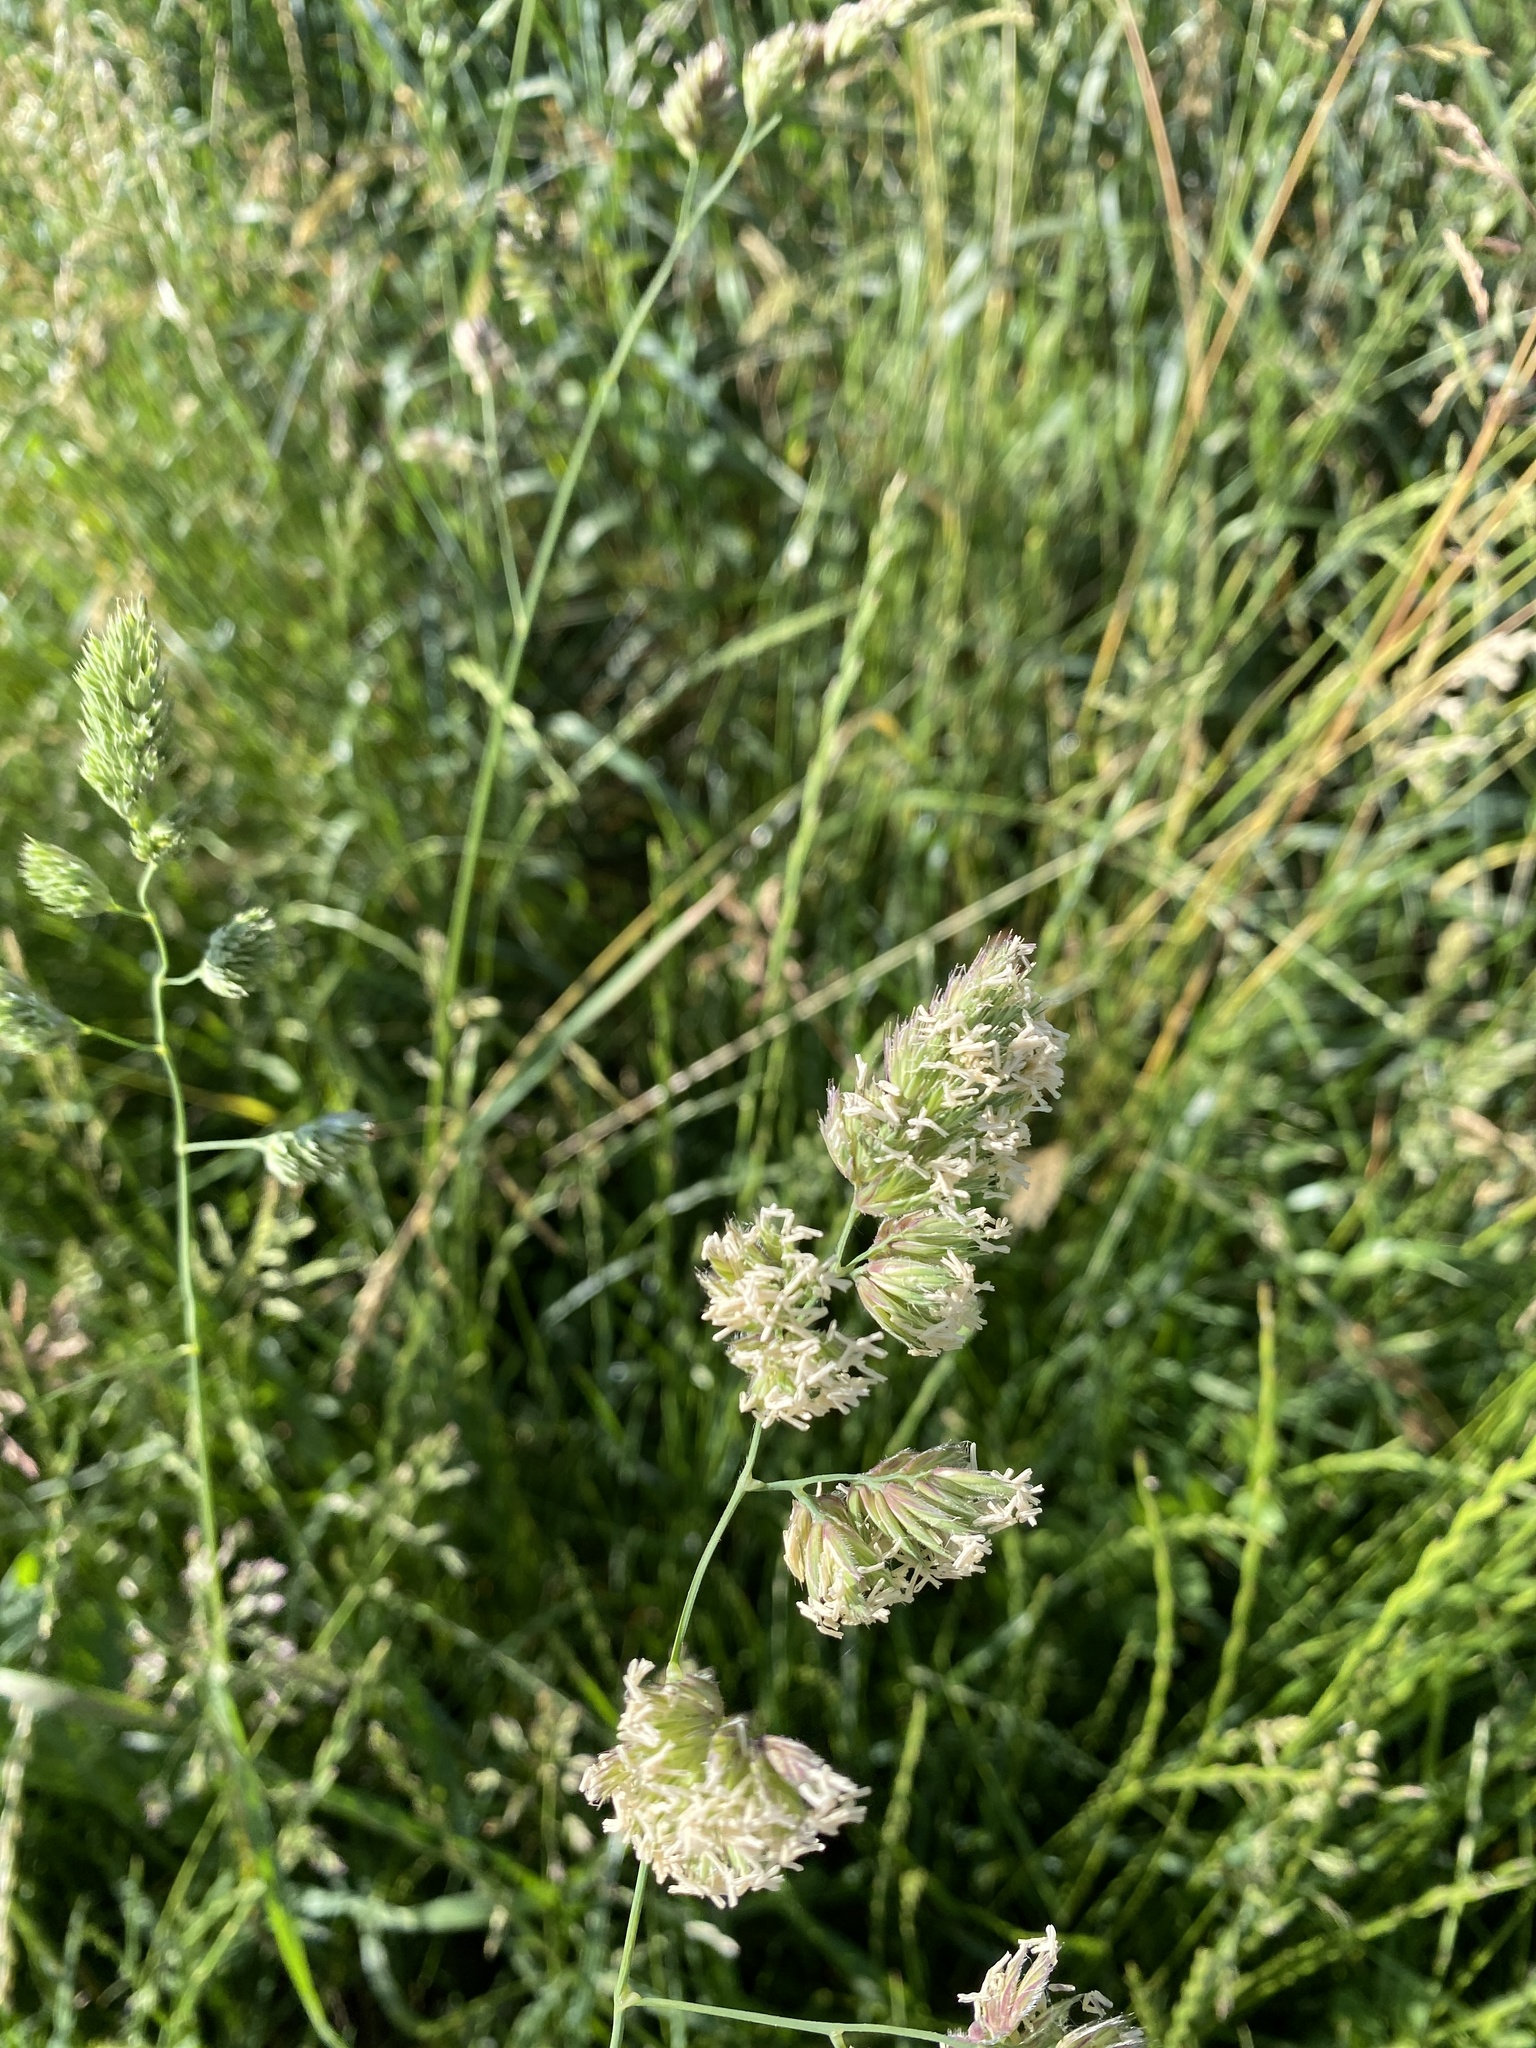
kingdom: Plantae
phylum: Tracheophyta
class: Liliopsida
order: Poales
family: Poaceae
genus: Dactylis
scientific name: Dactylis glomerata
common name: Orchardgrass
